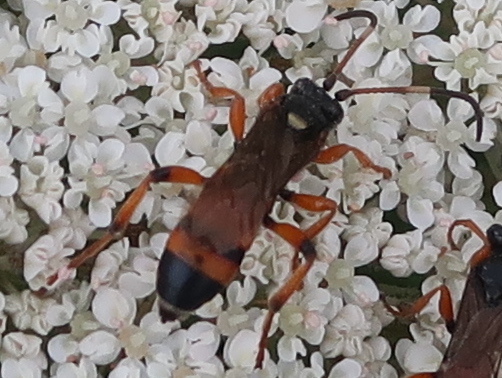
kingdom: Animalia
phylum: Arthropoda
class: Insecta
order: Hymenoptera
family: Ichneumonidae
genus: Ichneumon
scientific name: Ichneumon sarcitorius
